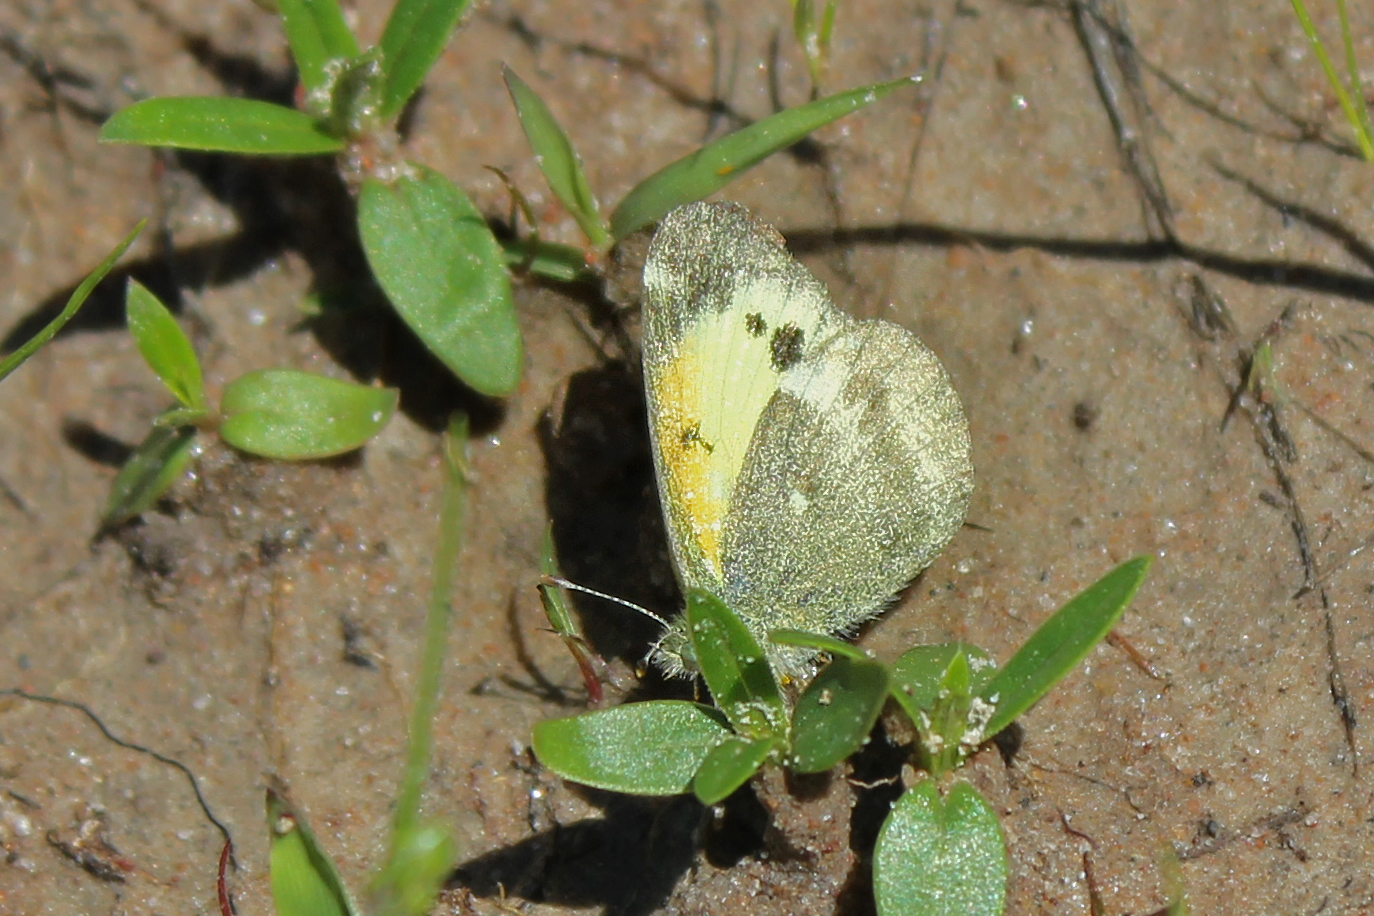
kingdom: Animalia
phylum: Arthropoda
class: Insecta
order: Lepidoptera
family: Pieridae
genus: Nathalis
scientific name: Nathalis iole
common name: Dainty sulphur
